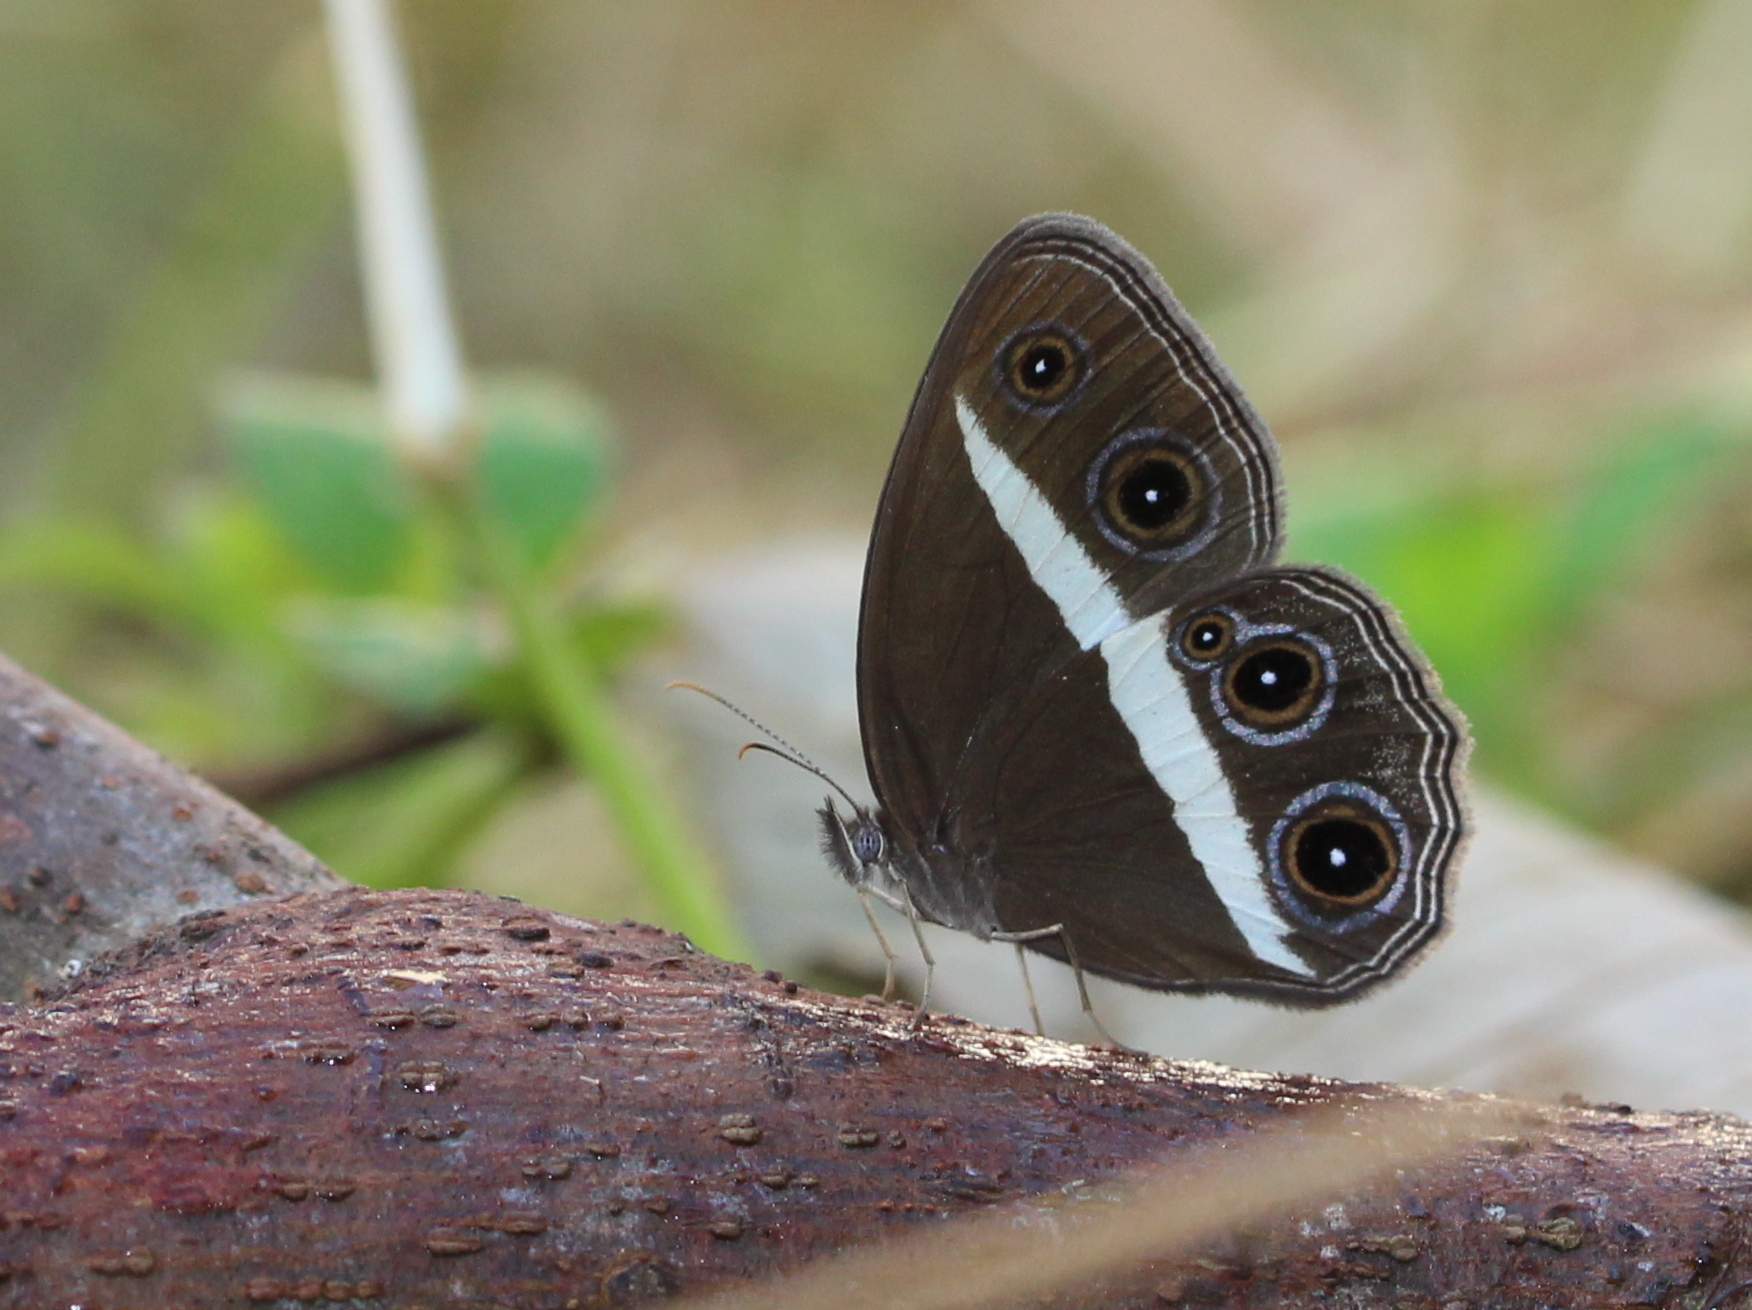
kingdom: Animalia
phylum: Arthropoda
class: Insecta
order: Lepidoptera
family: Nymphalidae
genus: Orsotriaena
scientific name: Orsotriaena medus
